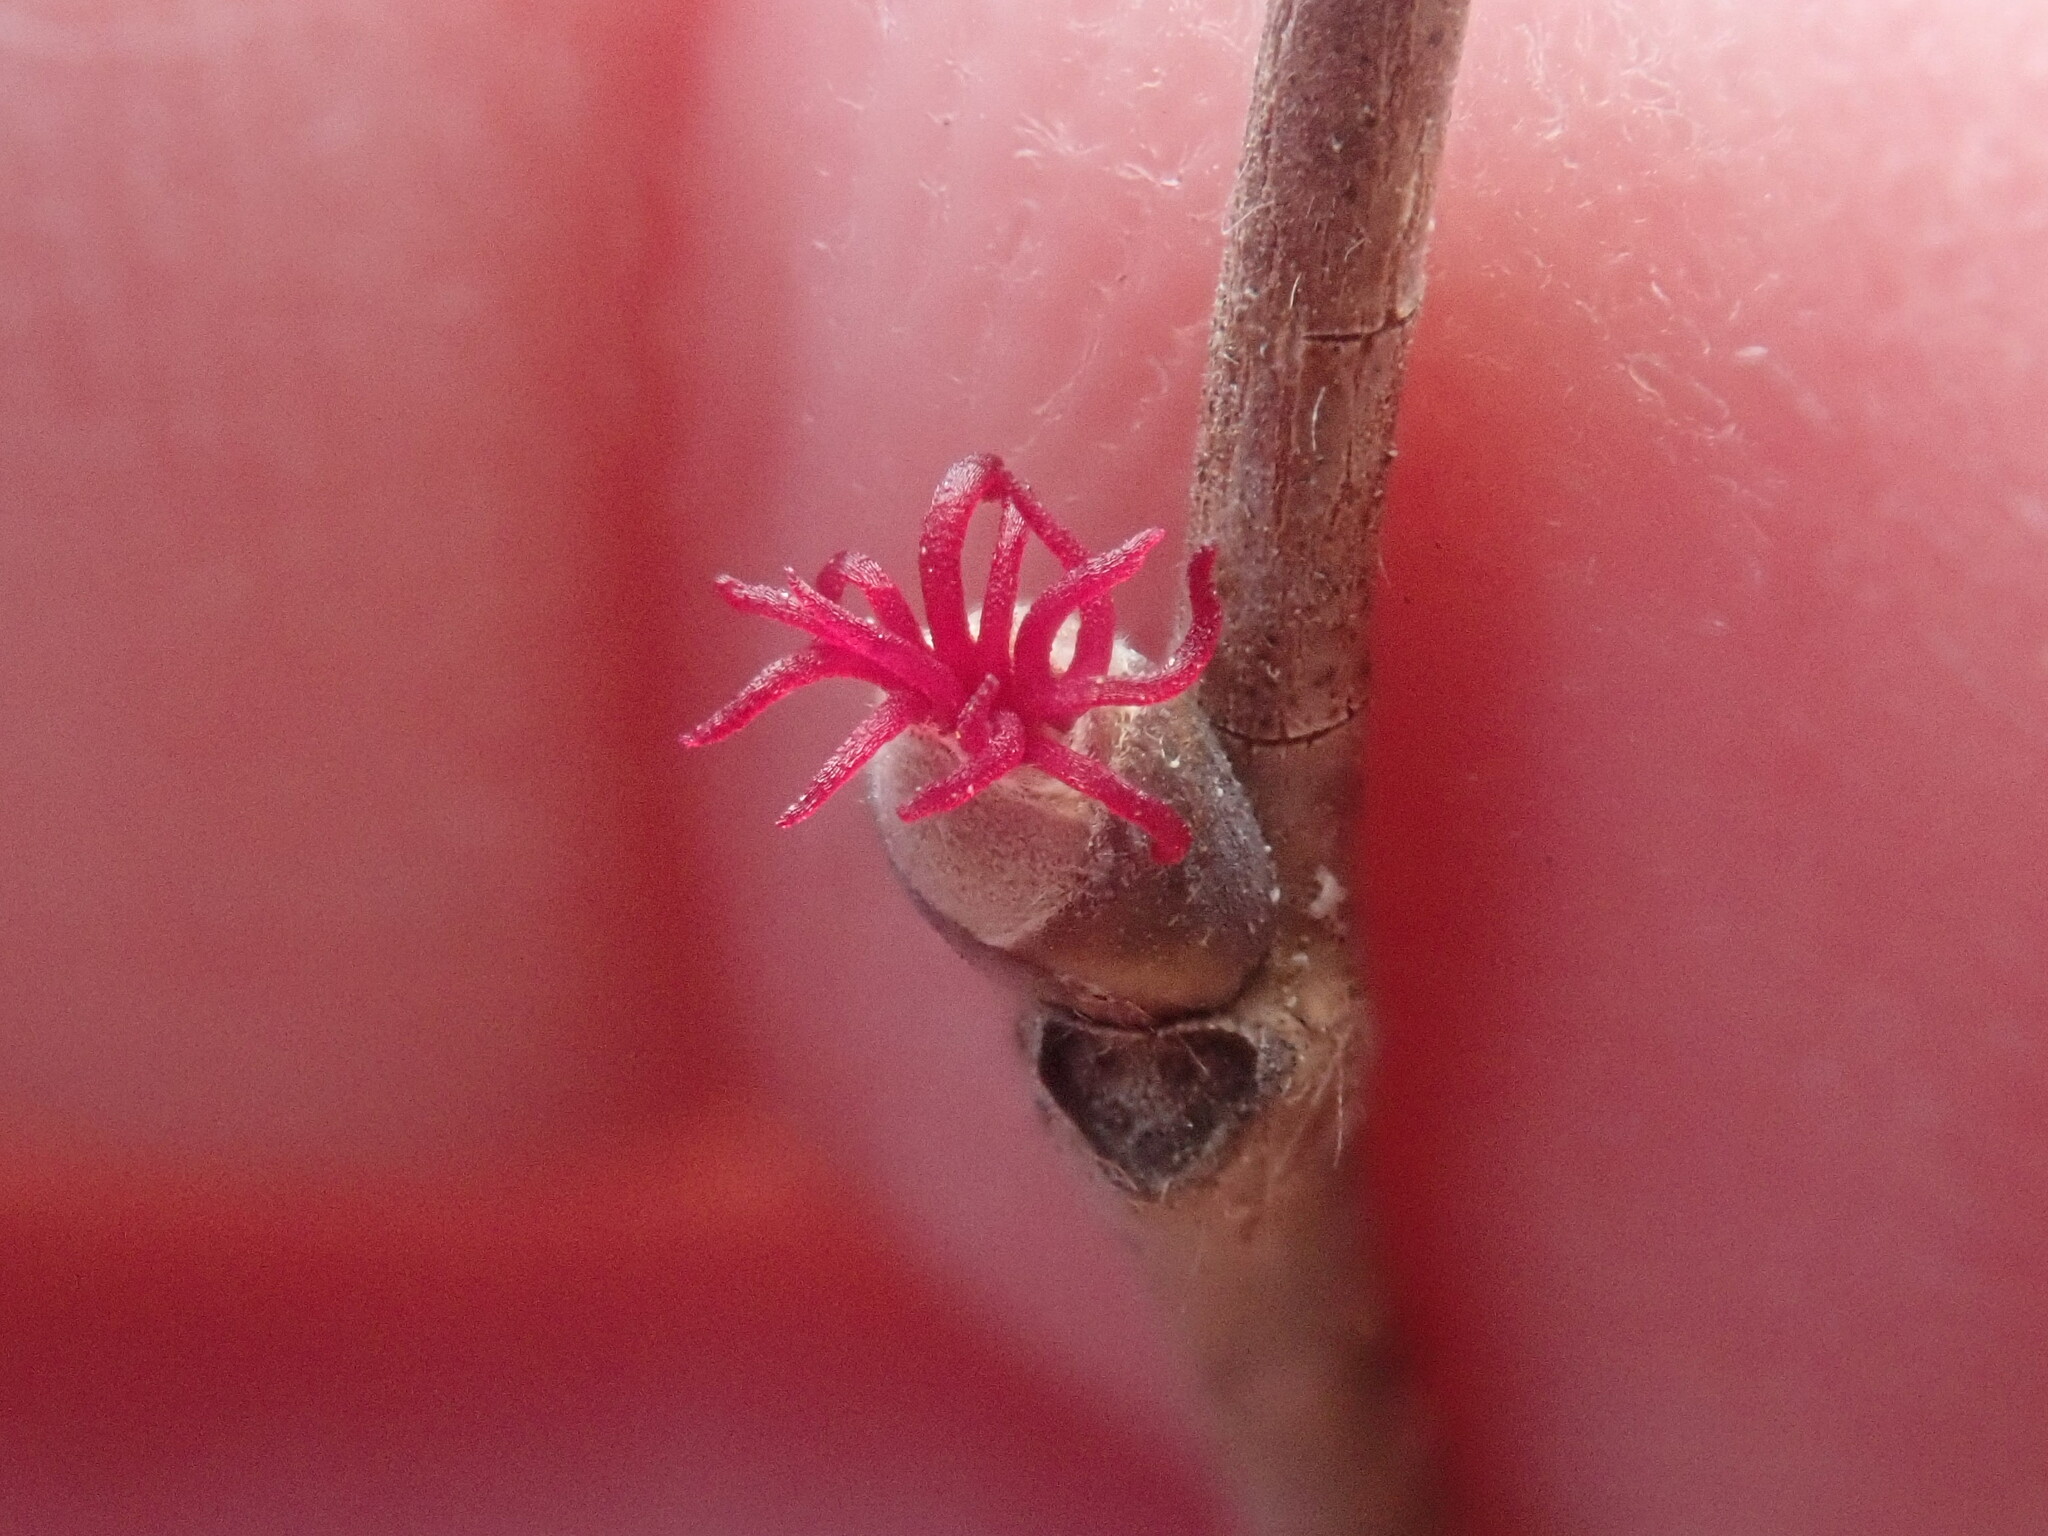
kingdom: Plantae
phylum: Tracheophyta
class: Magnoliopsida
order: Fagales
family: Betulaceae
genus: Corylus
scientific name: Corylus cornuta
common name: Beaked hazel
